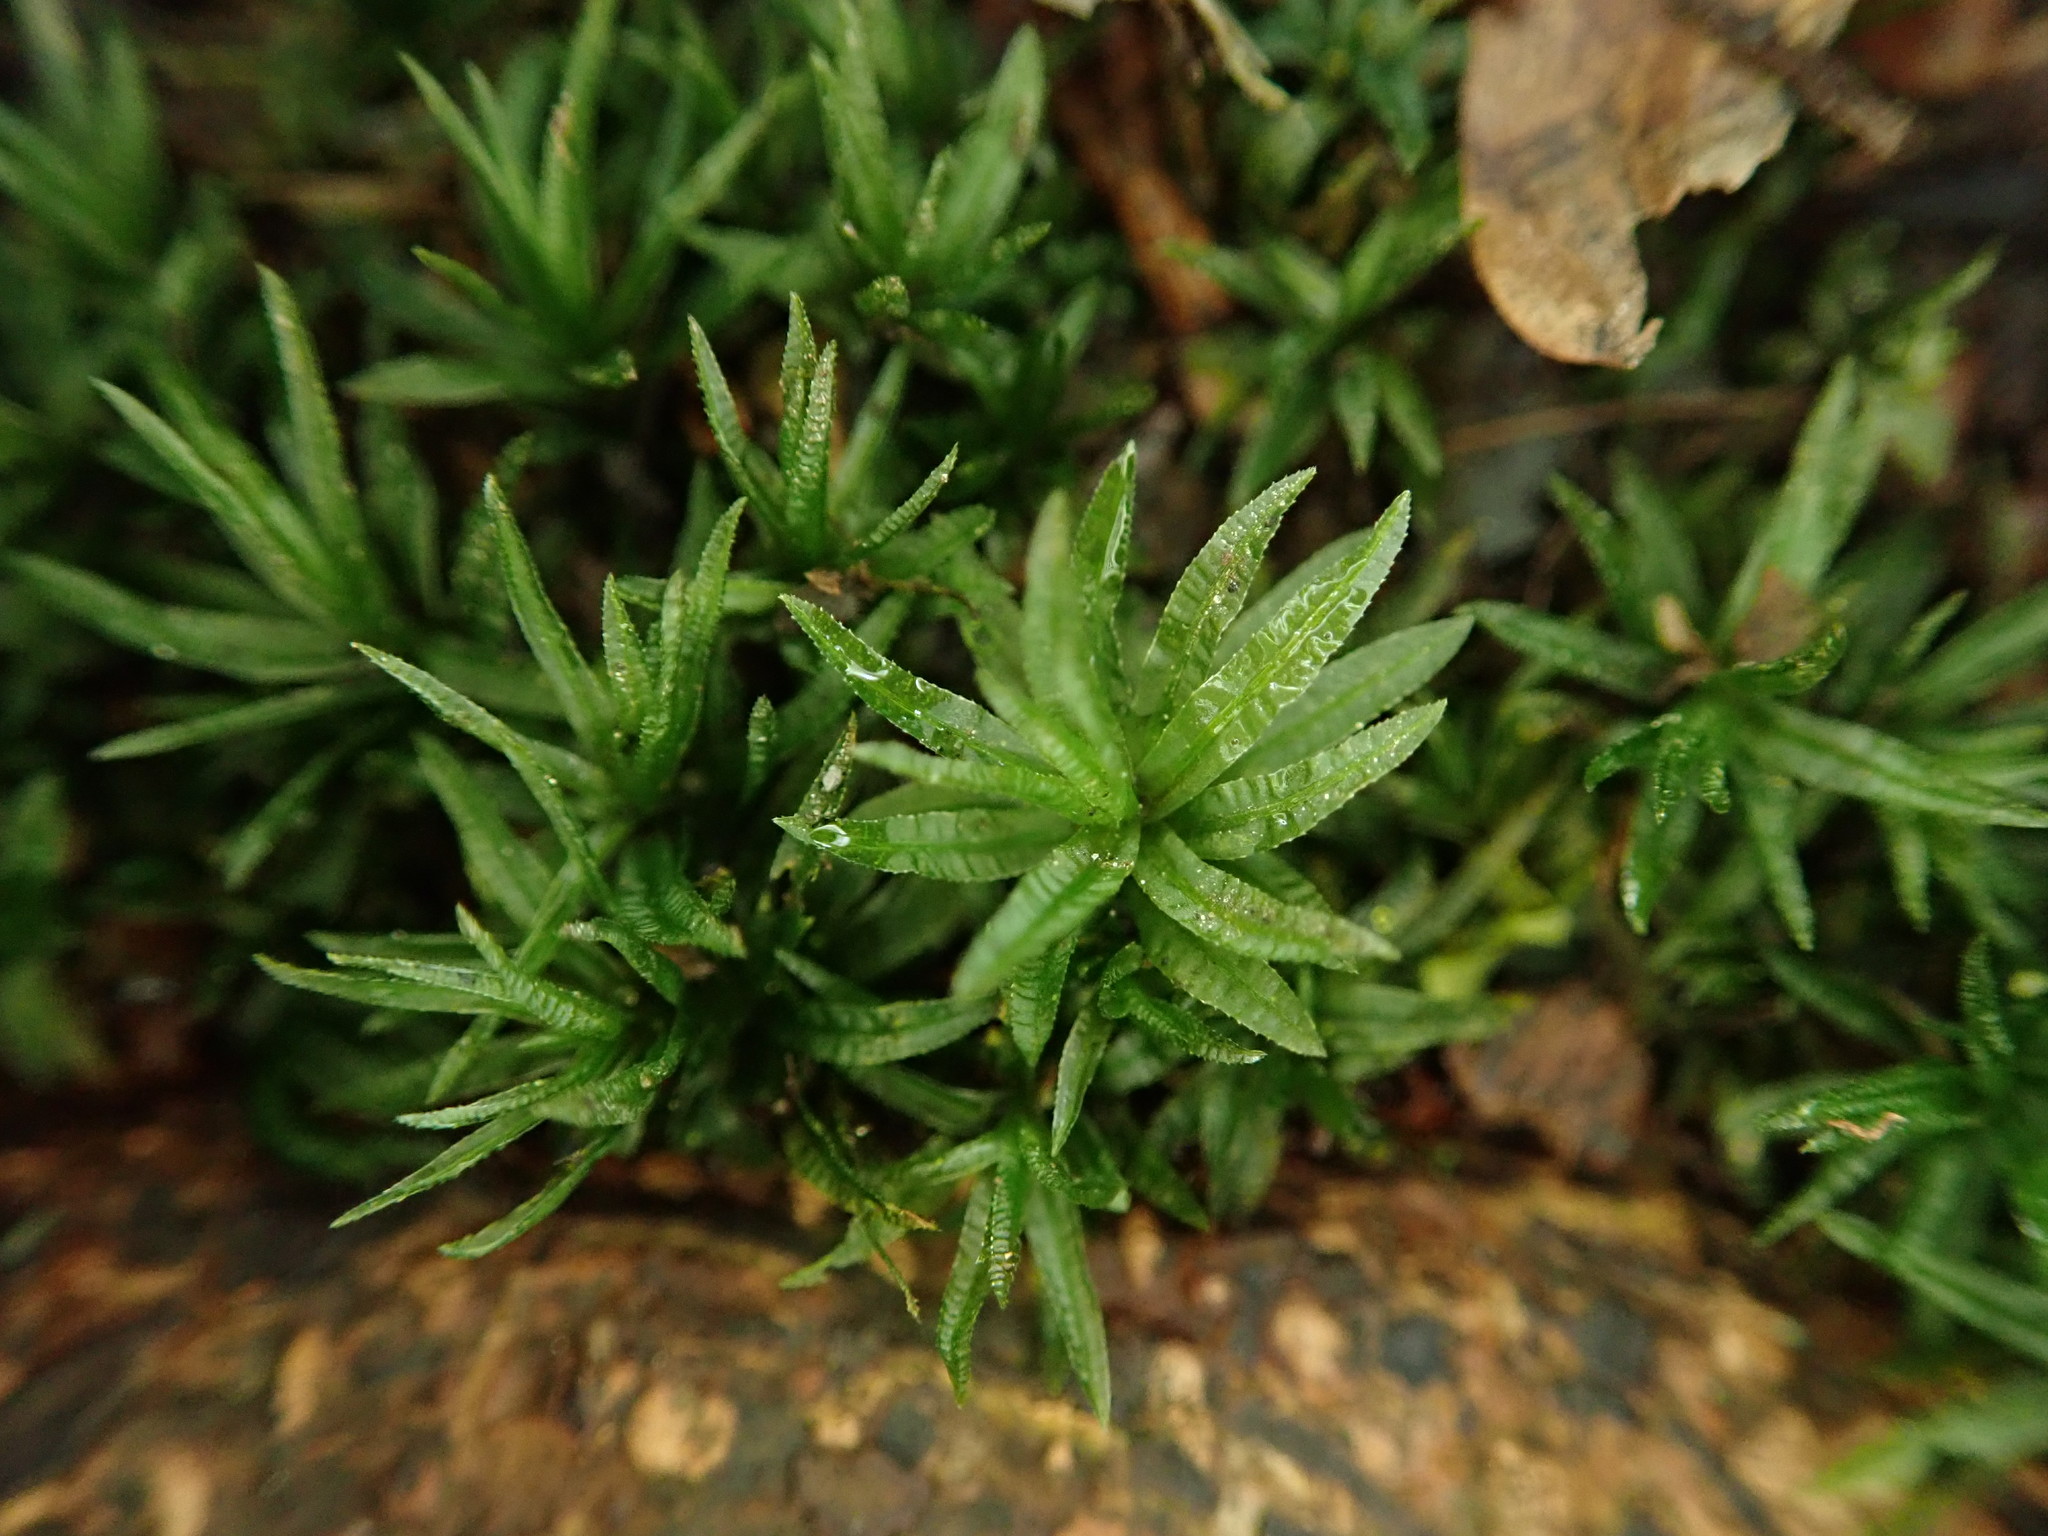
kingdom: Plantae
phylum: Bryophyta
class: Polytrichopsida
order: Polytrichales
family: Polytrichaceae
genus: Atrichum
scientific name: Atrichum undulatum
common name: Common smoothcap
